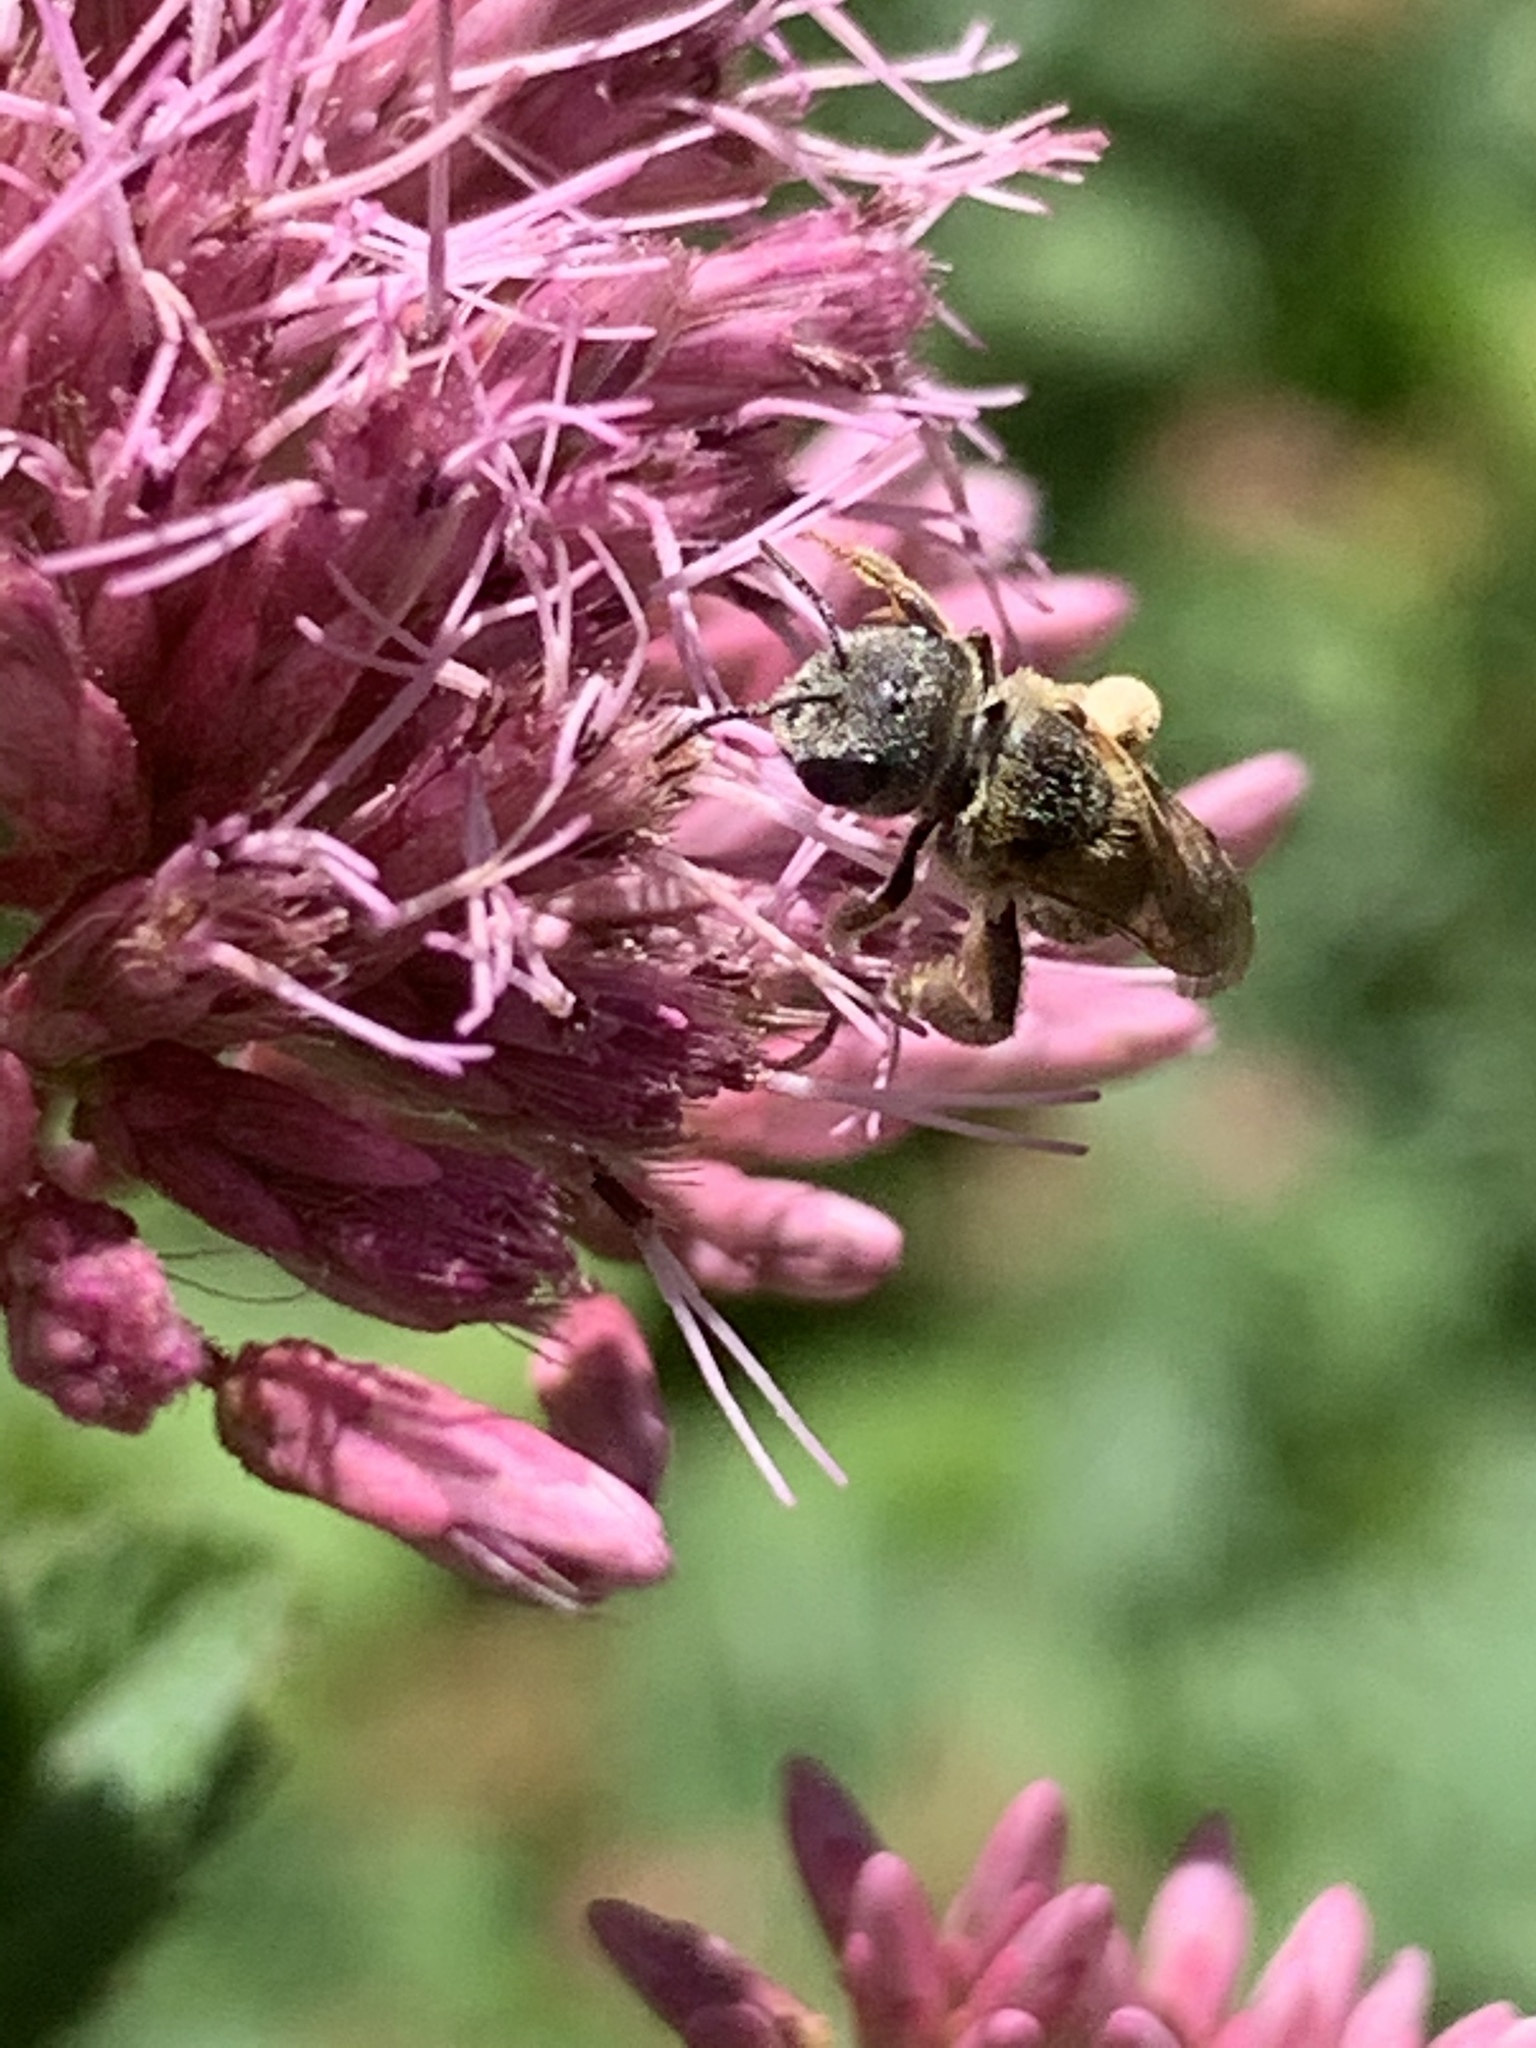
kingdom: Animalia
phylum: Arthropoda
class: Insecta
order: Hymenoptera
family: Halictidae
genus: Halictus
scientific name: Halictus ligatus
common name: Ligated furrow bee
